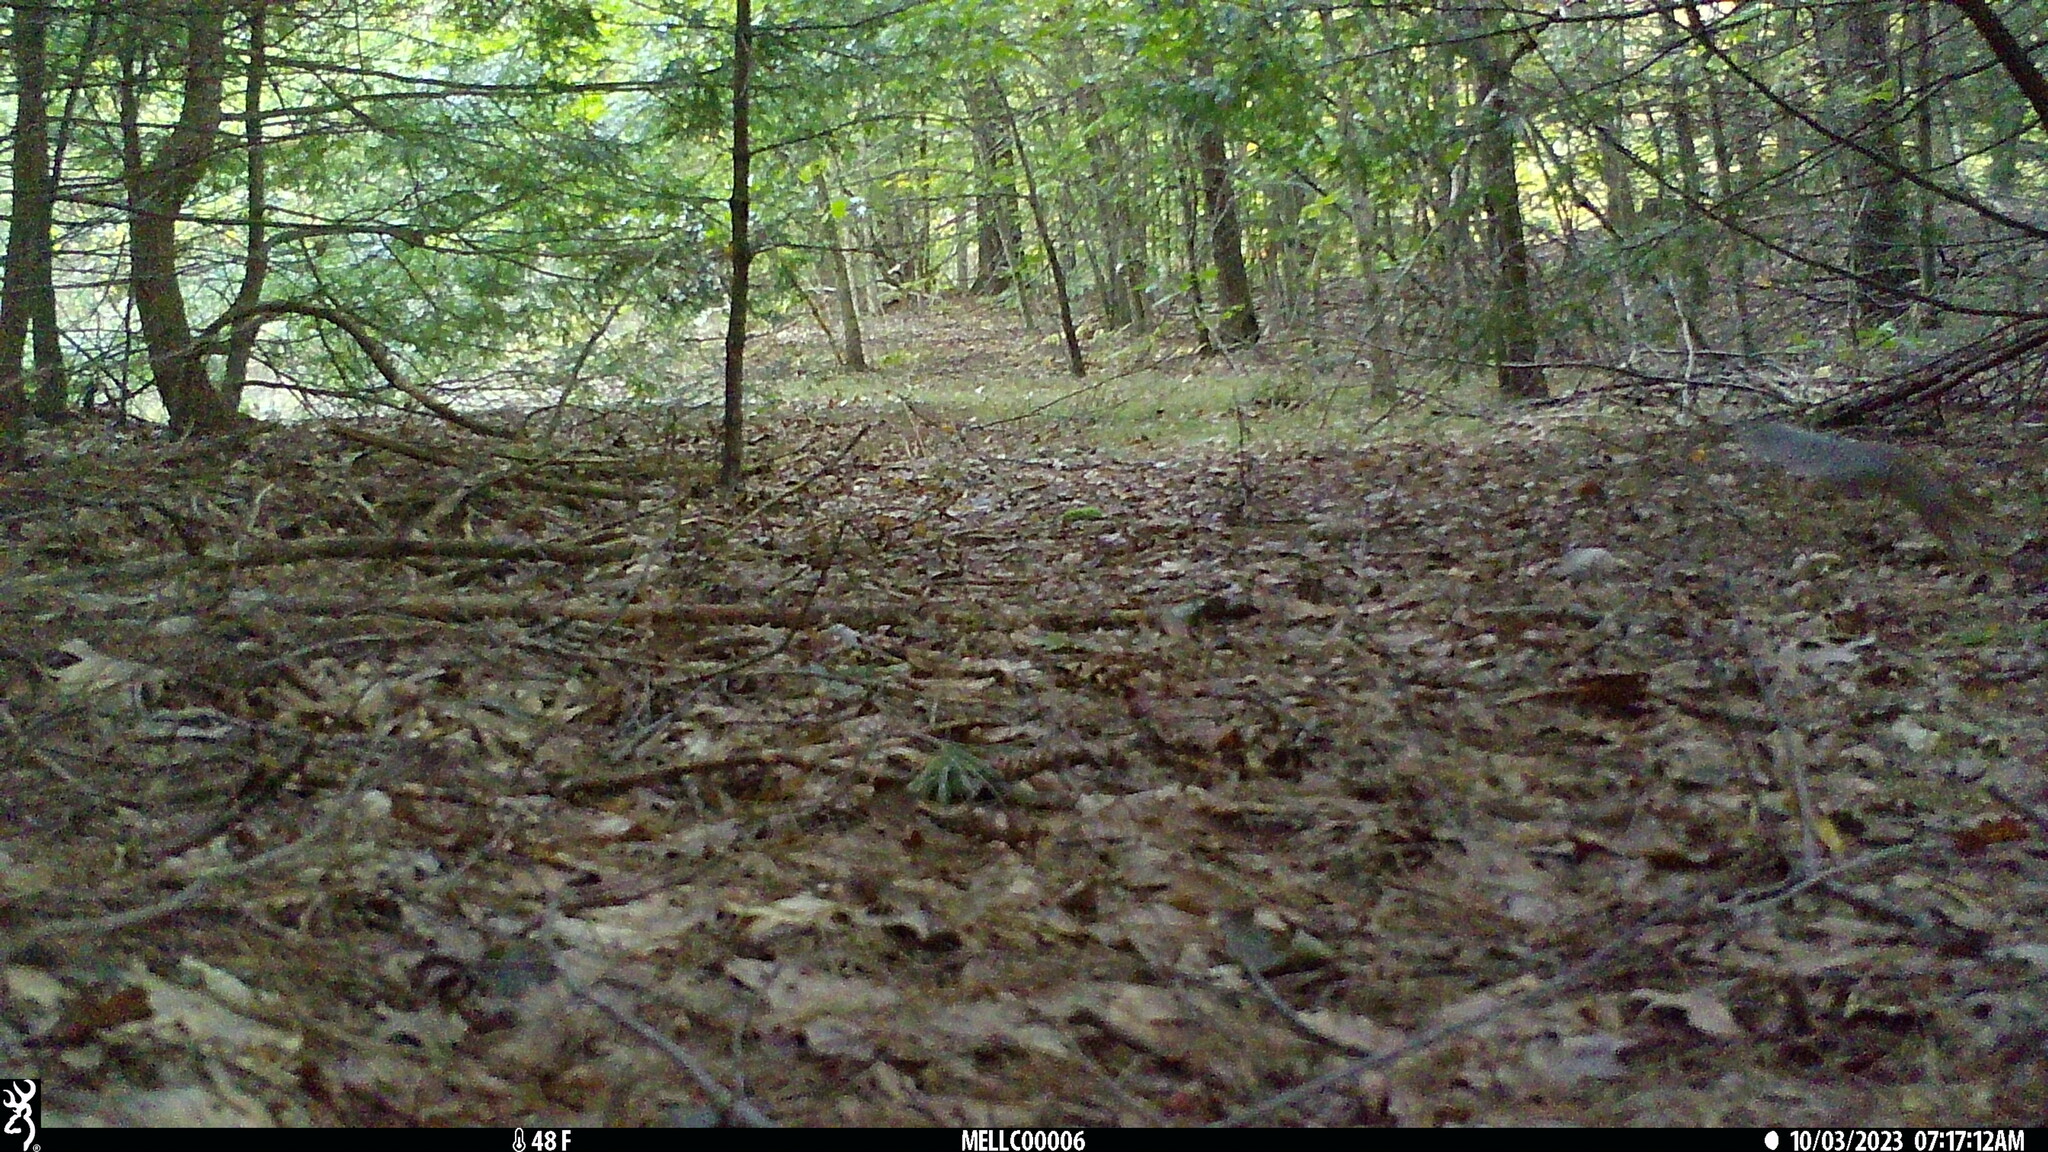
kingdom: Animalia
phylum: Chordata
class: Mammalia
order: Rodentia
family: Sciuridae
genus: Sciurus
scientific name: Sciurus carolinensis
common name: Eastern gray squirrel
